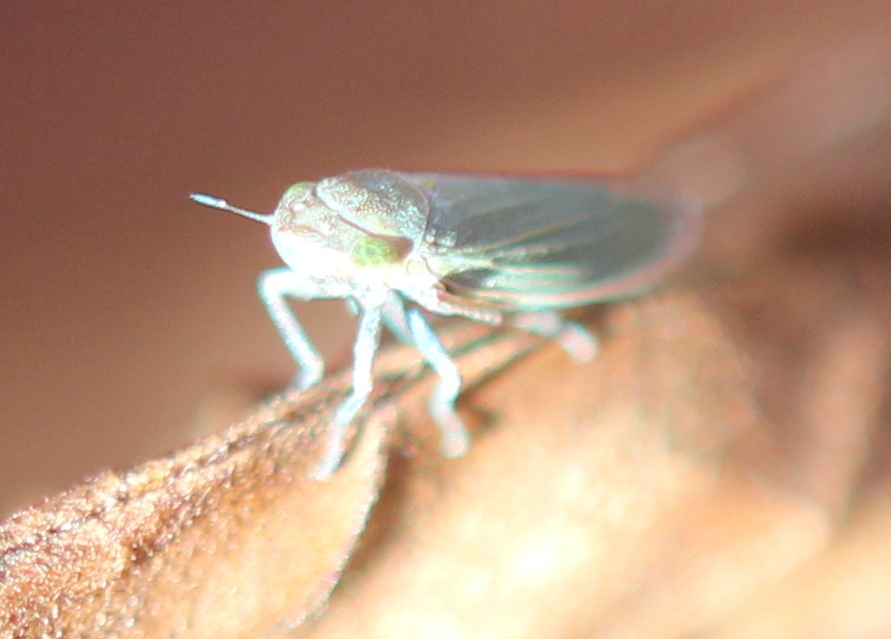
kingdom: Animalia
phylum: Arthropoda
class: Insecta
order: Hemiptera
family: Cicadellidae
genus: Helochara
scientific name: Helochara communis
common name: Bog leafhopper
